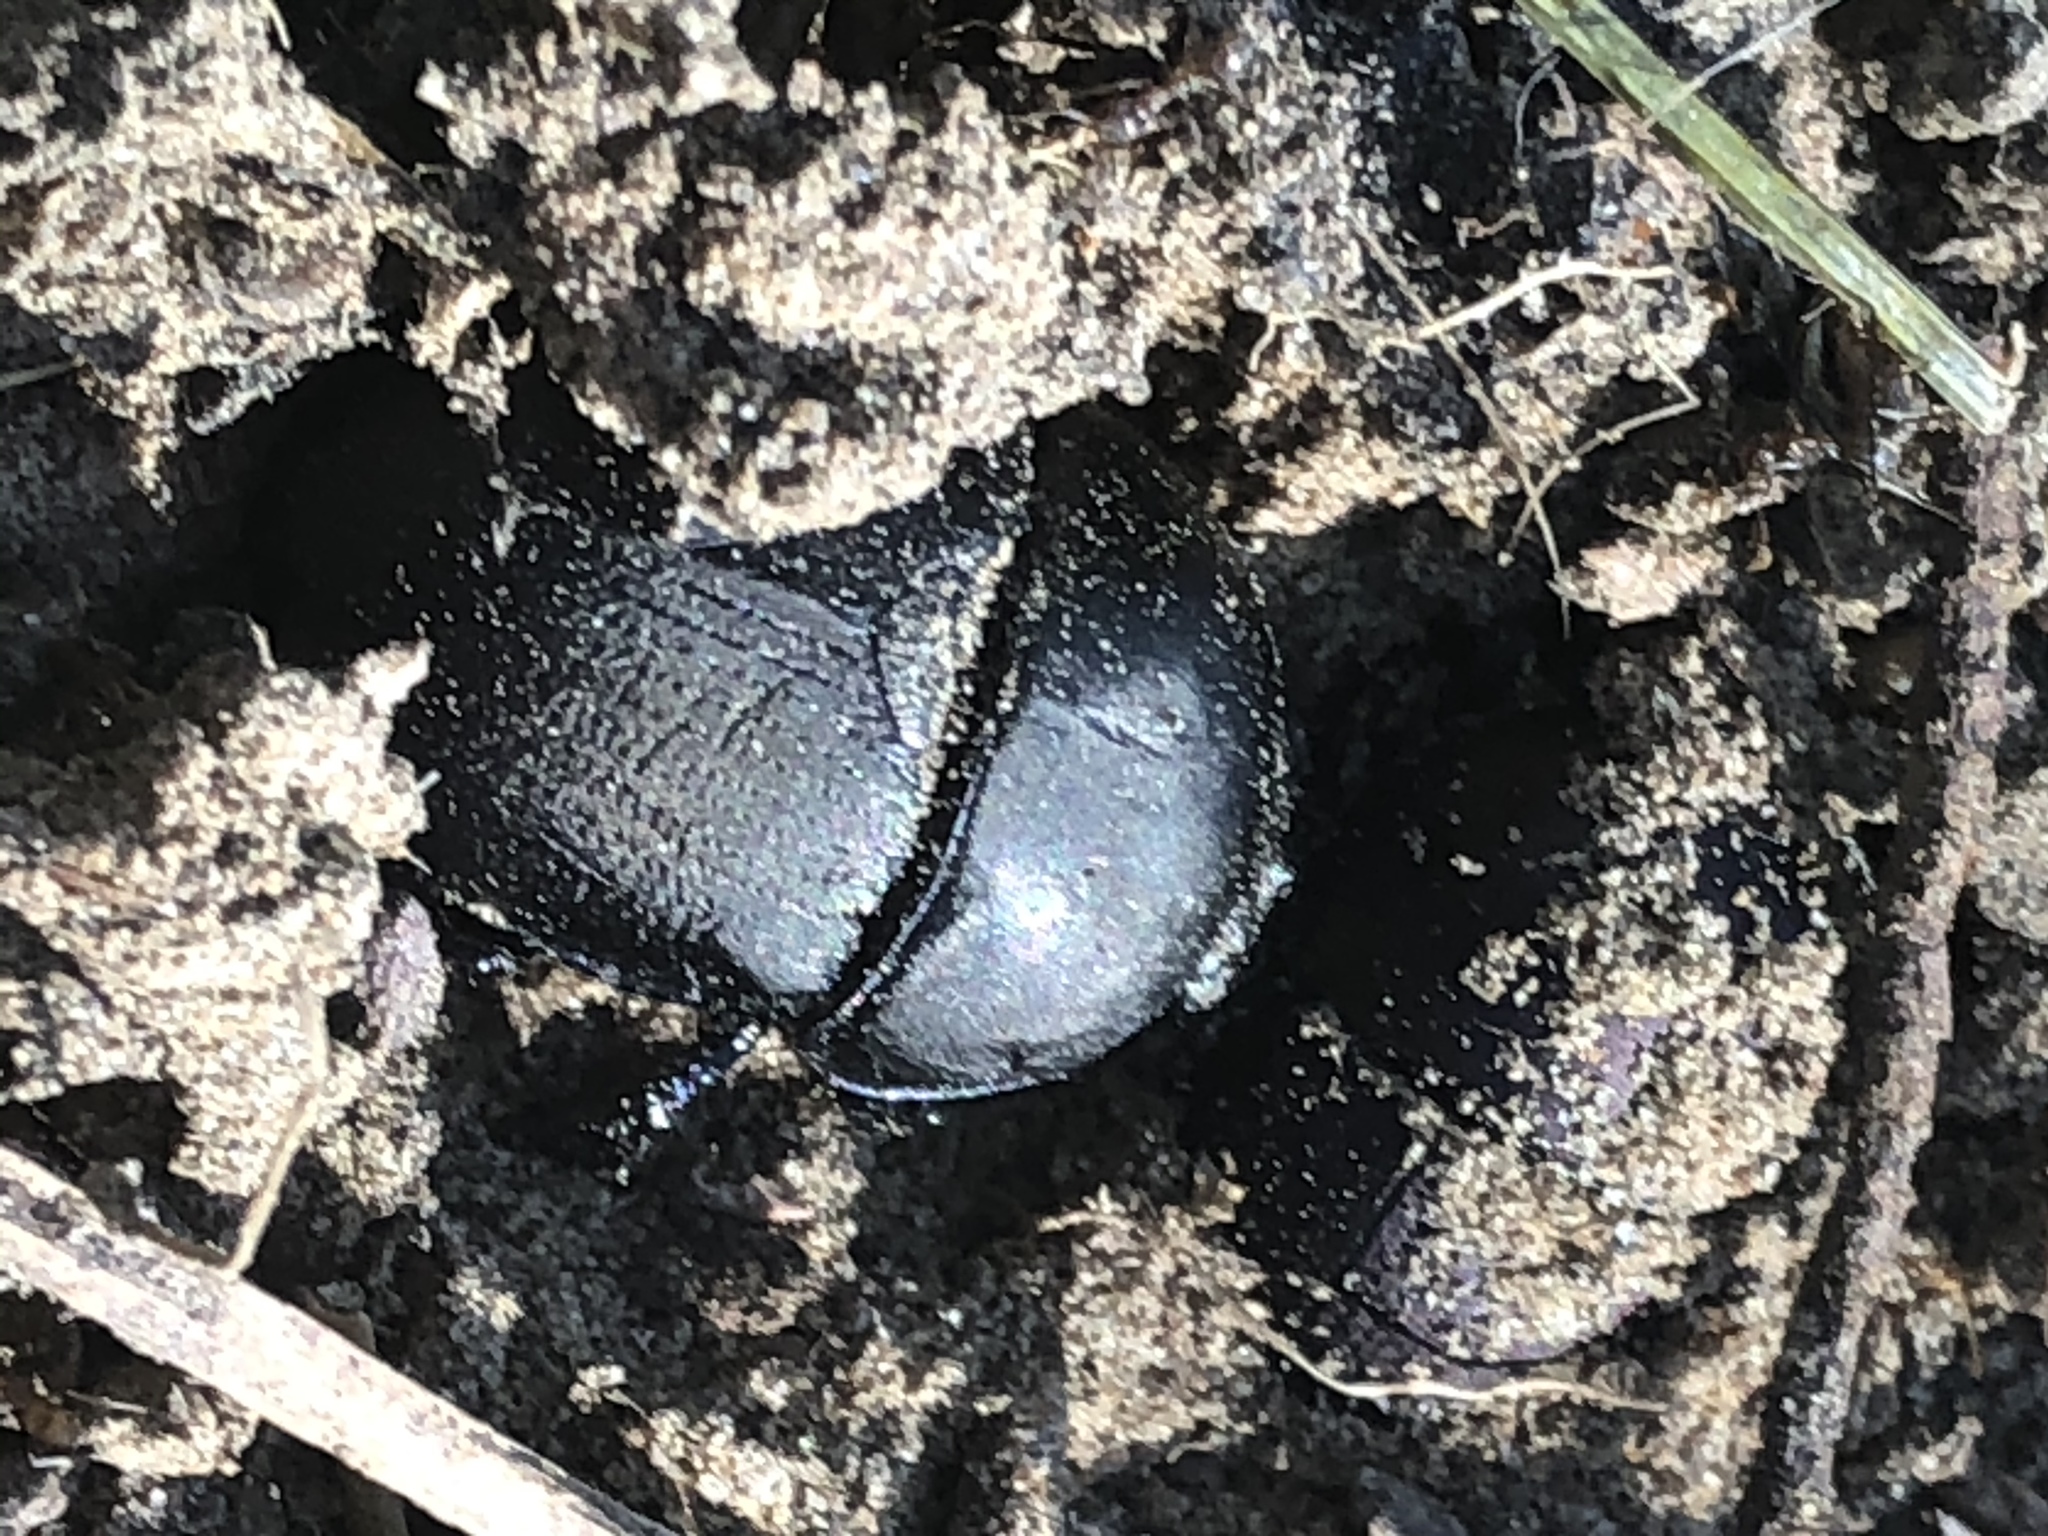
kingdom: Animalia
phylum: Arthropoda
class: Insecta
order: Coleoptera
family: Geotrupidae
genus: Geohowdenius
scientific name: Geohowdenius opacus
